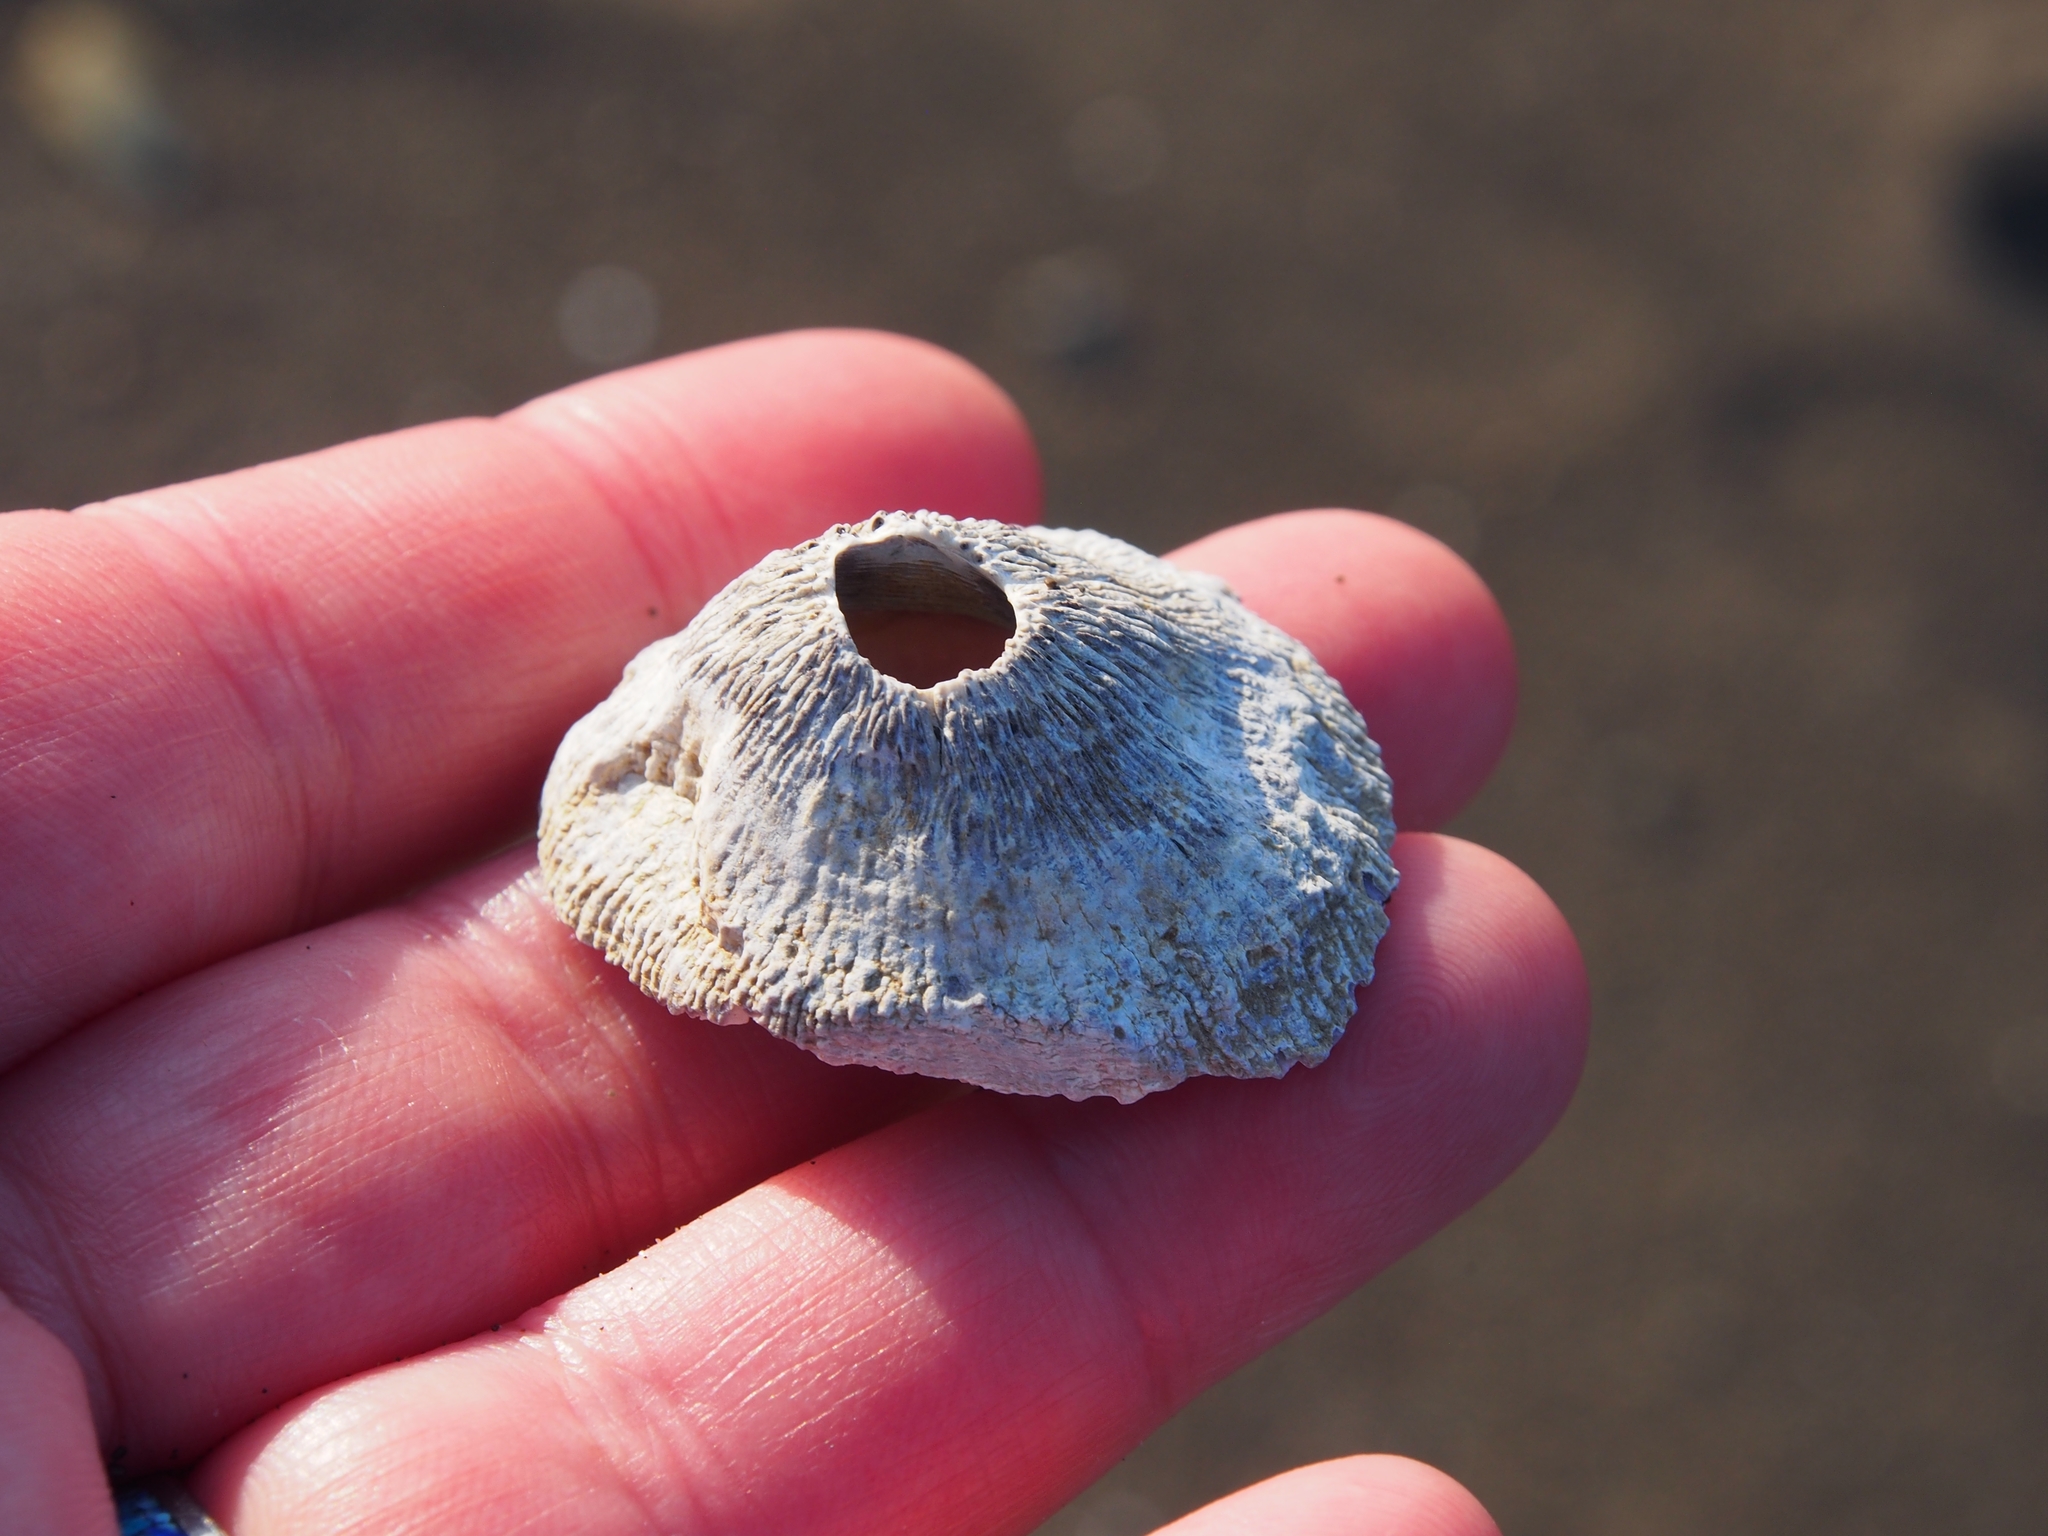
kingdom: Animalia
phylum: Arthropoda
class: Maxillopoda
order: Sessilia
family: Tetraclitidae
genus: Tetraclita
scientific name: Tetraclita stalactifera
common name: Ribbed barnacle
